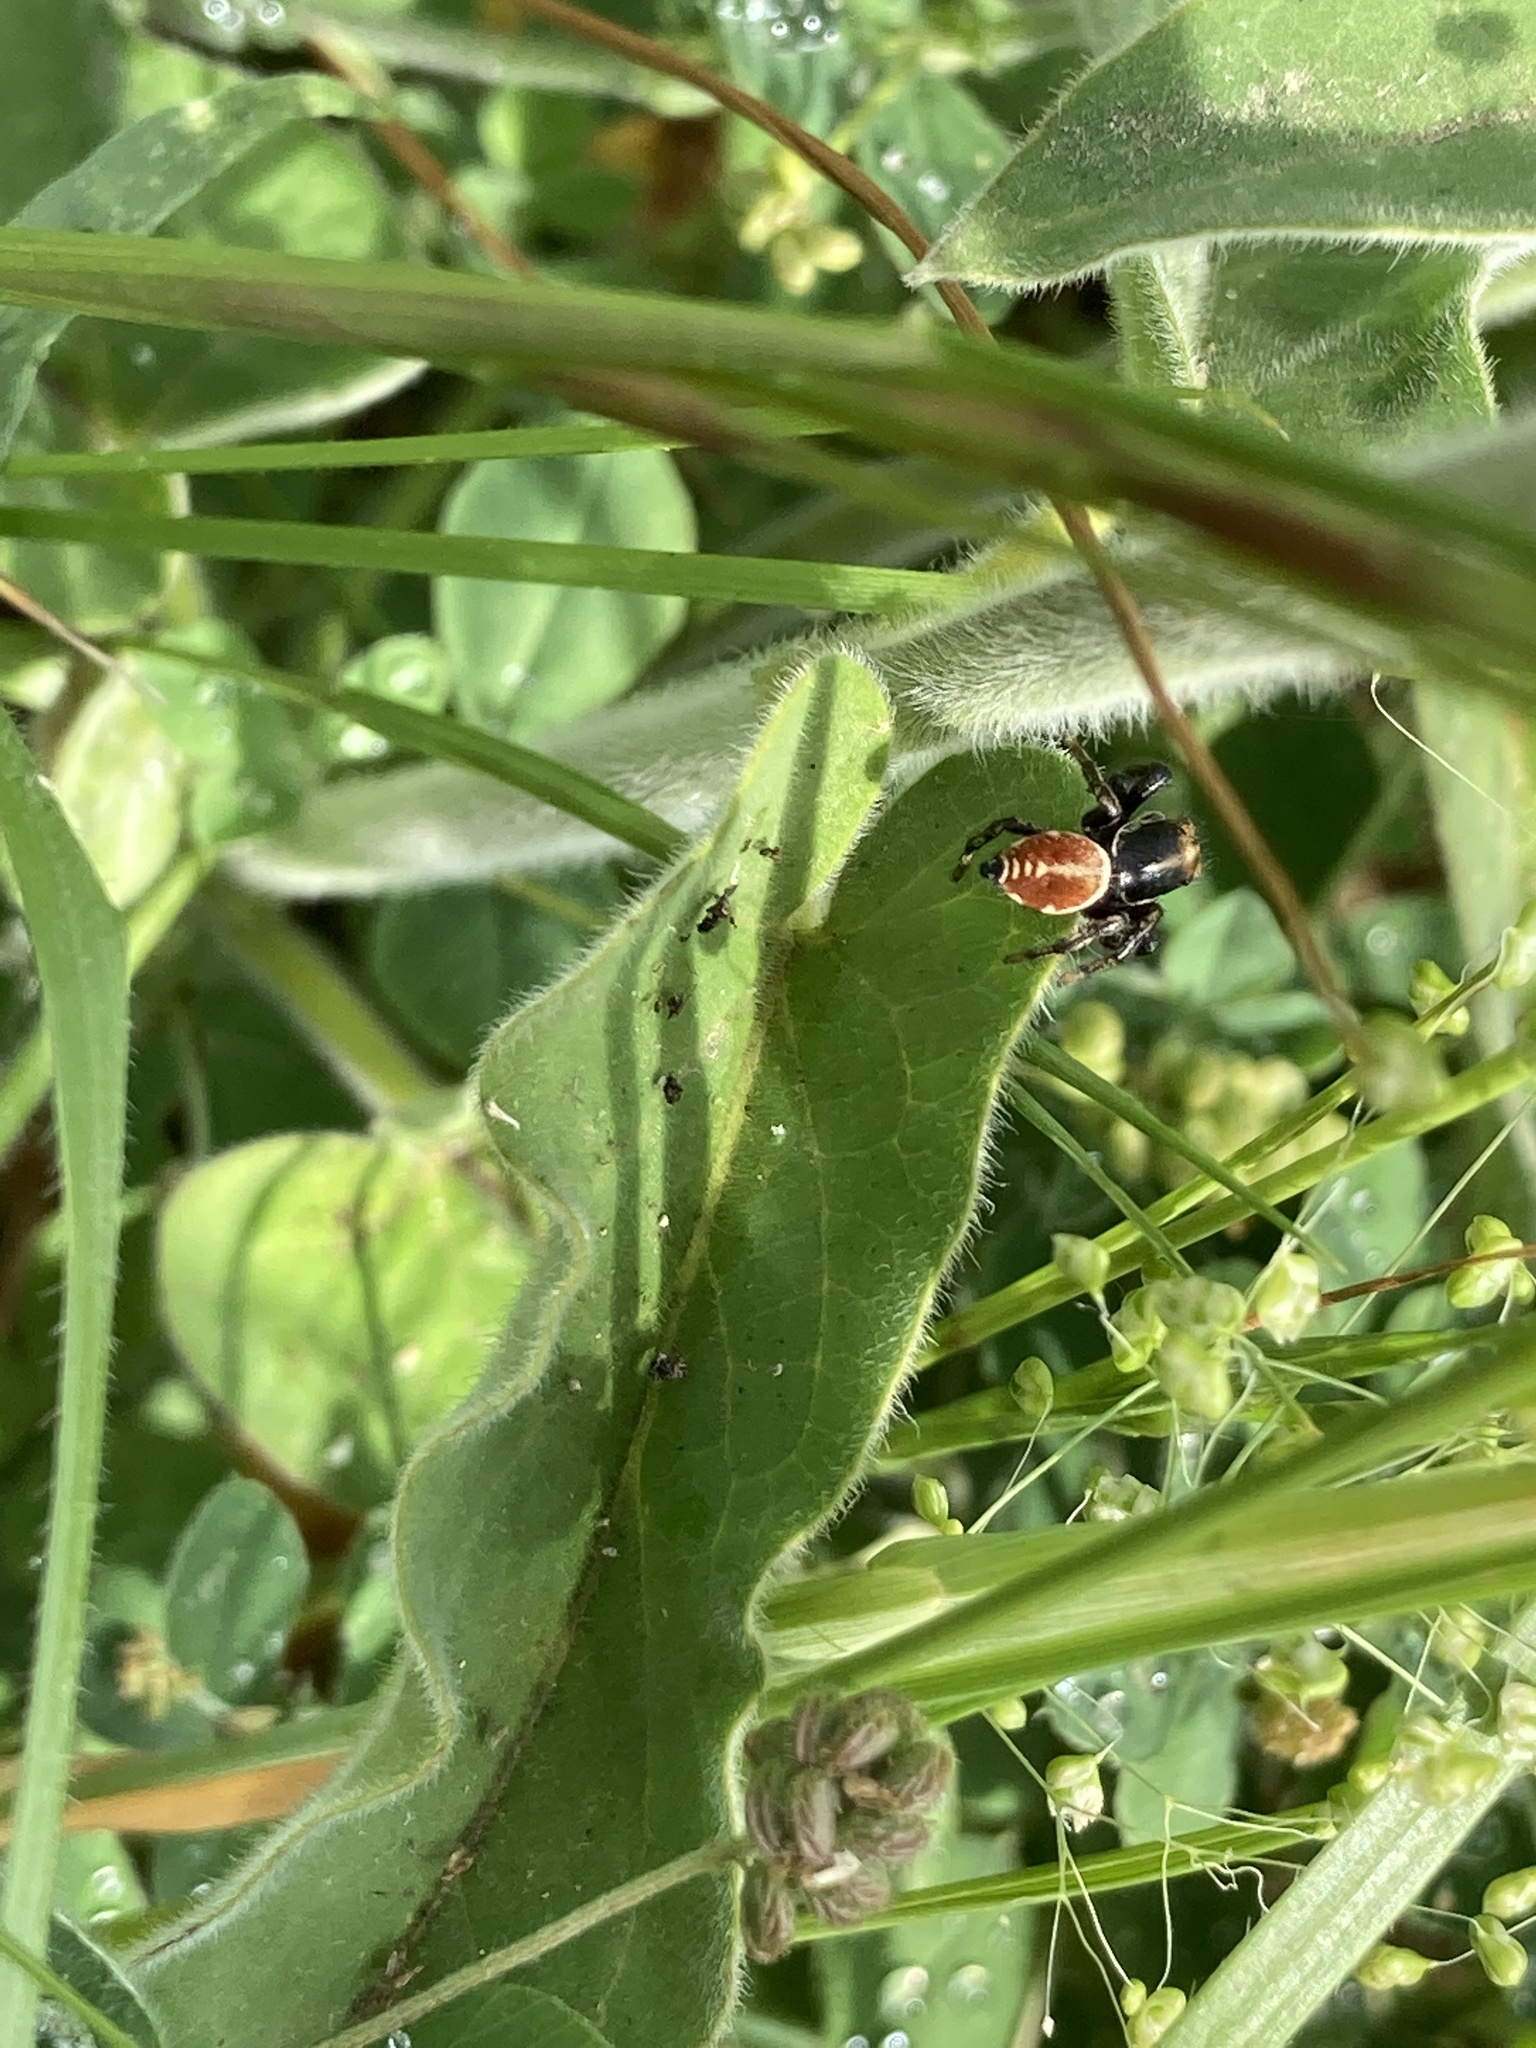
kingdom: Animalia
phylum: Arthropoda
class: Arachnida
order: Araneae
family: Salticidae
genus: Phiale
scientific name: Phiale roburifoliata
